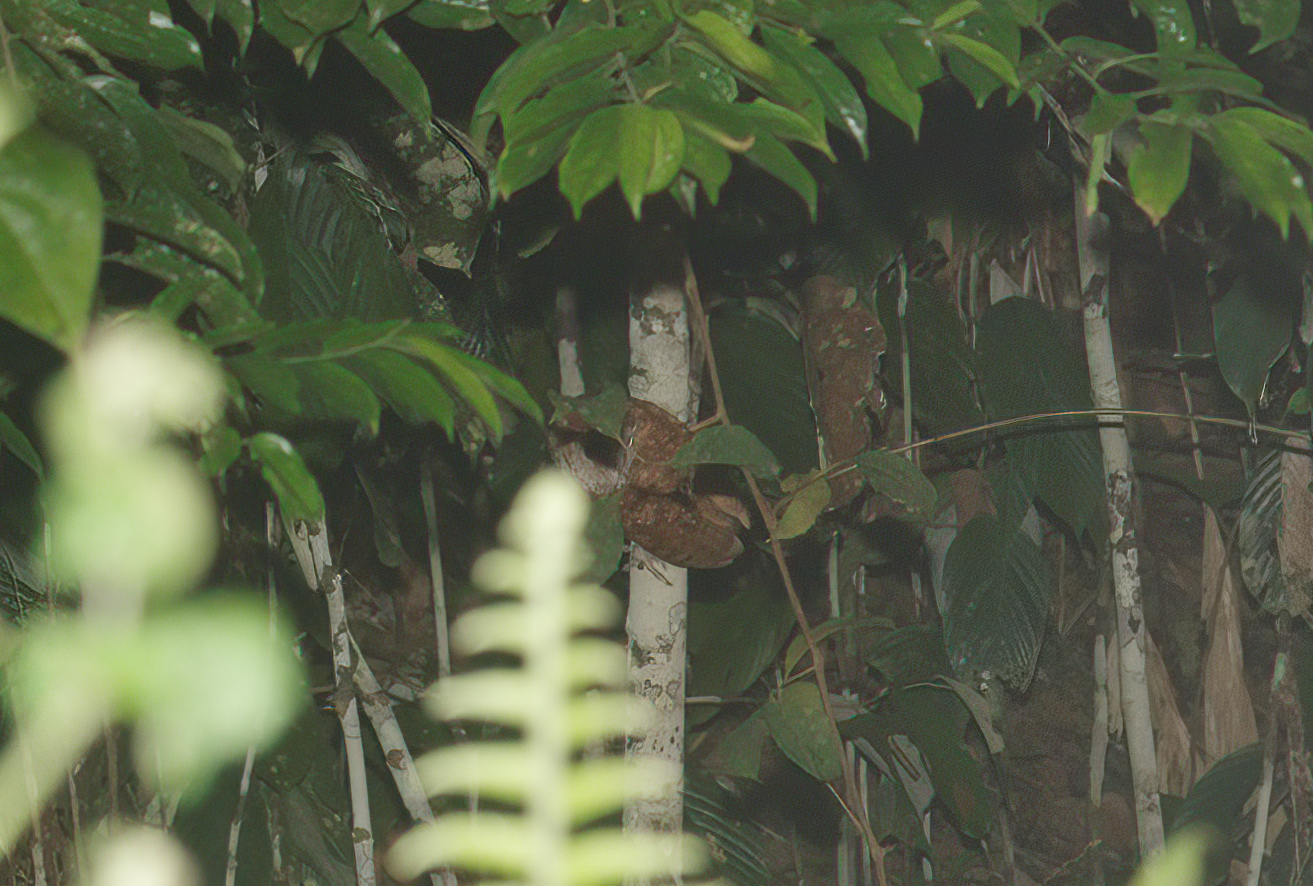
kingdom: Animalia
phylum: Chordata
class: Aves
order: Strigiformes
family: Tytonidae
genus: Phodilus
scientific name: Phodilus badius
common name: Oriental bay-owl
